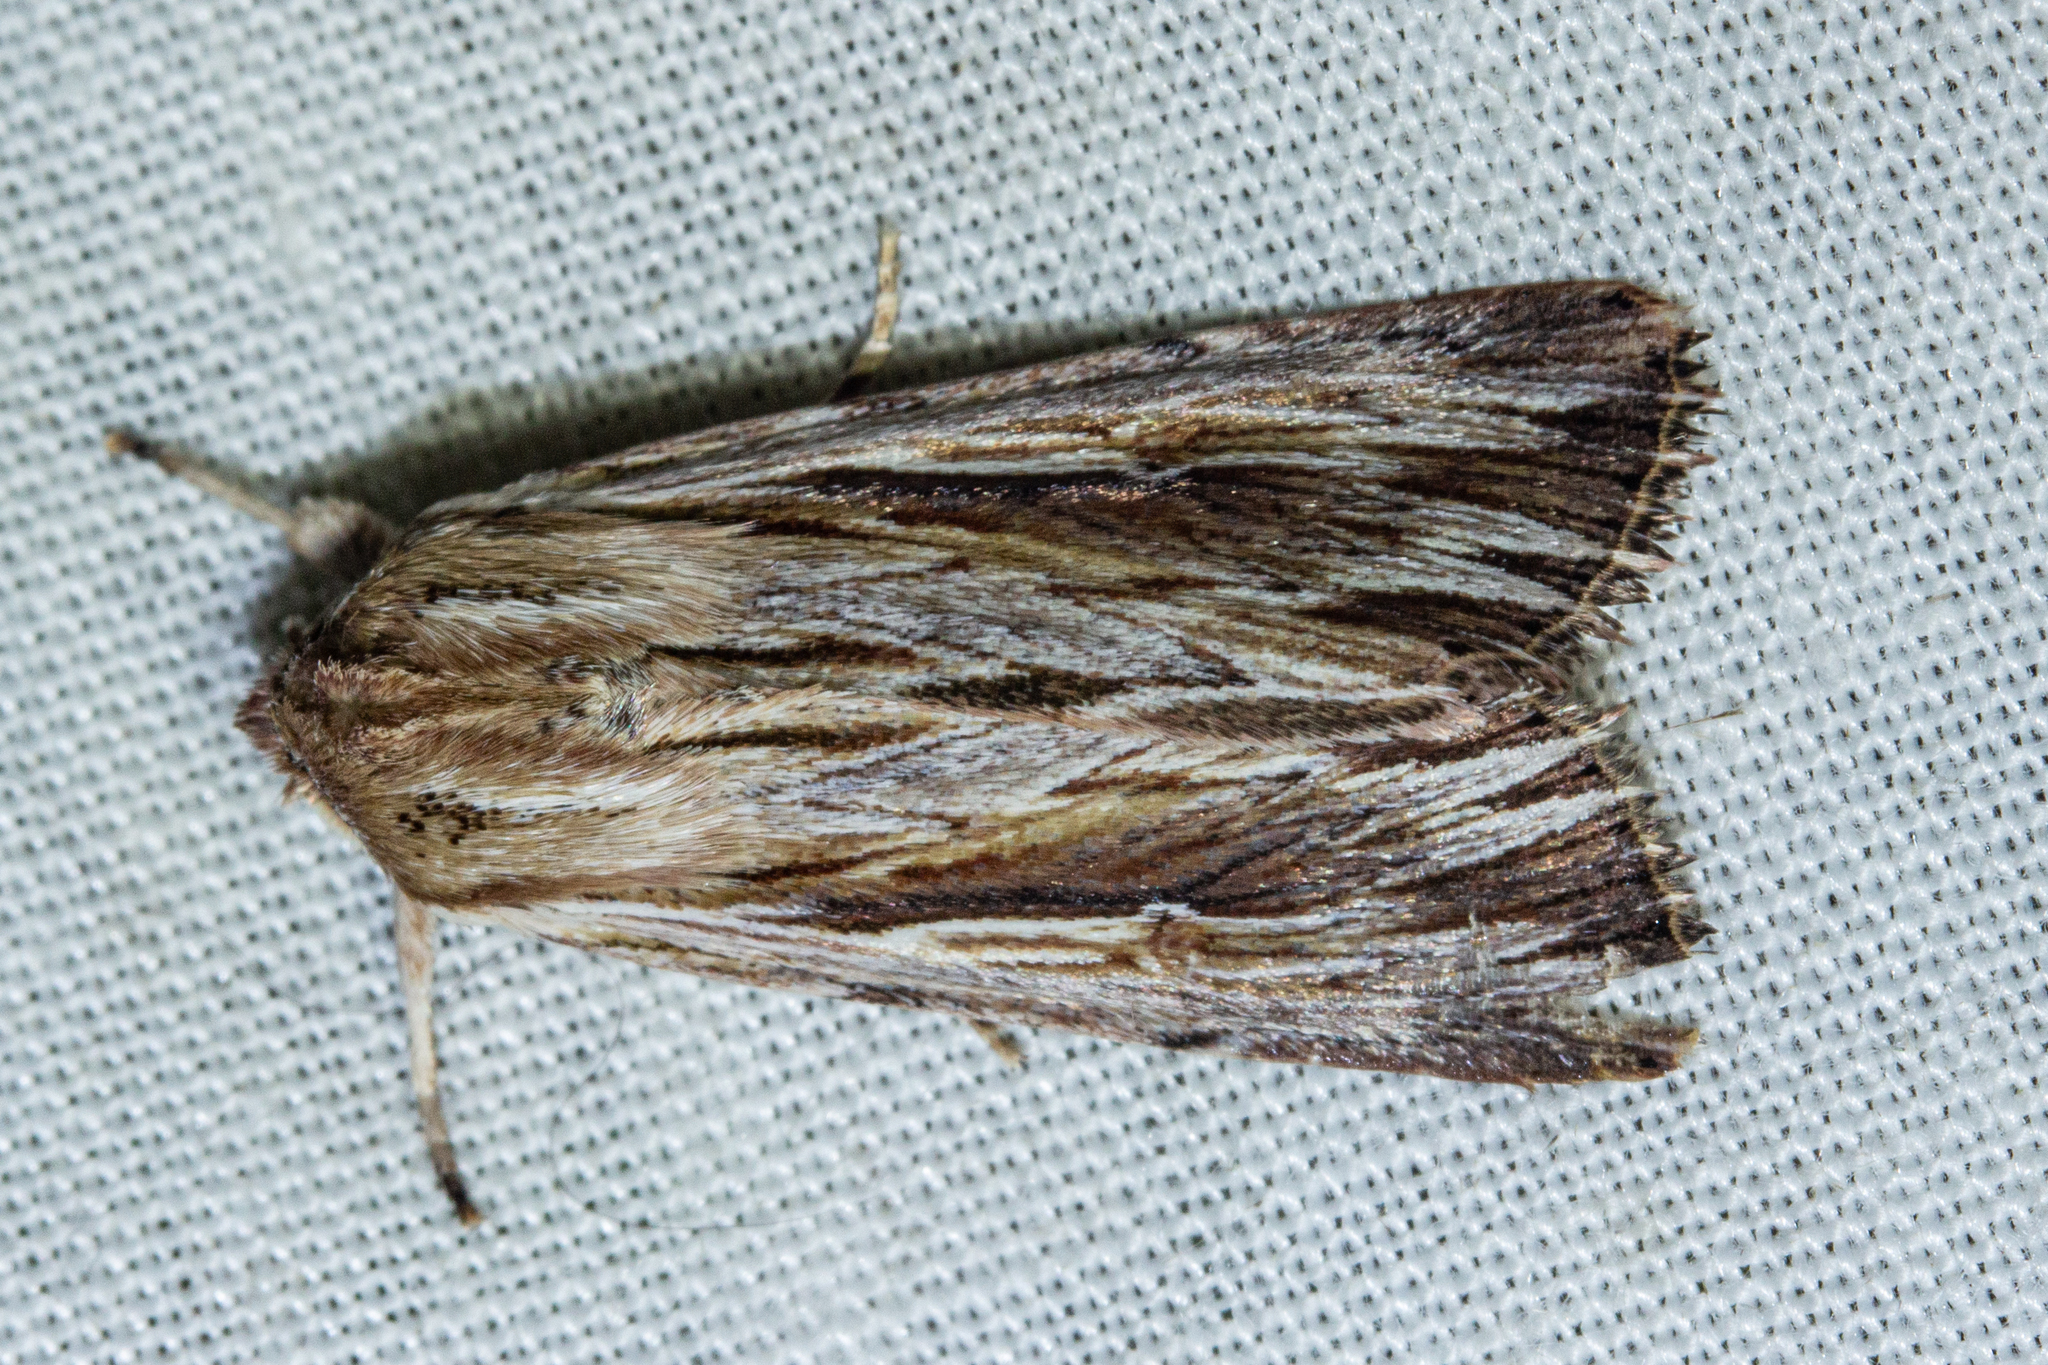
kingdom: Animalia
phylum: Arthropoda
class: Insecta
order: Lepidoptera
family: Noctuidae
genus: Persectania
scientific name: Persectania aversa
